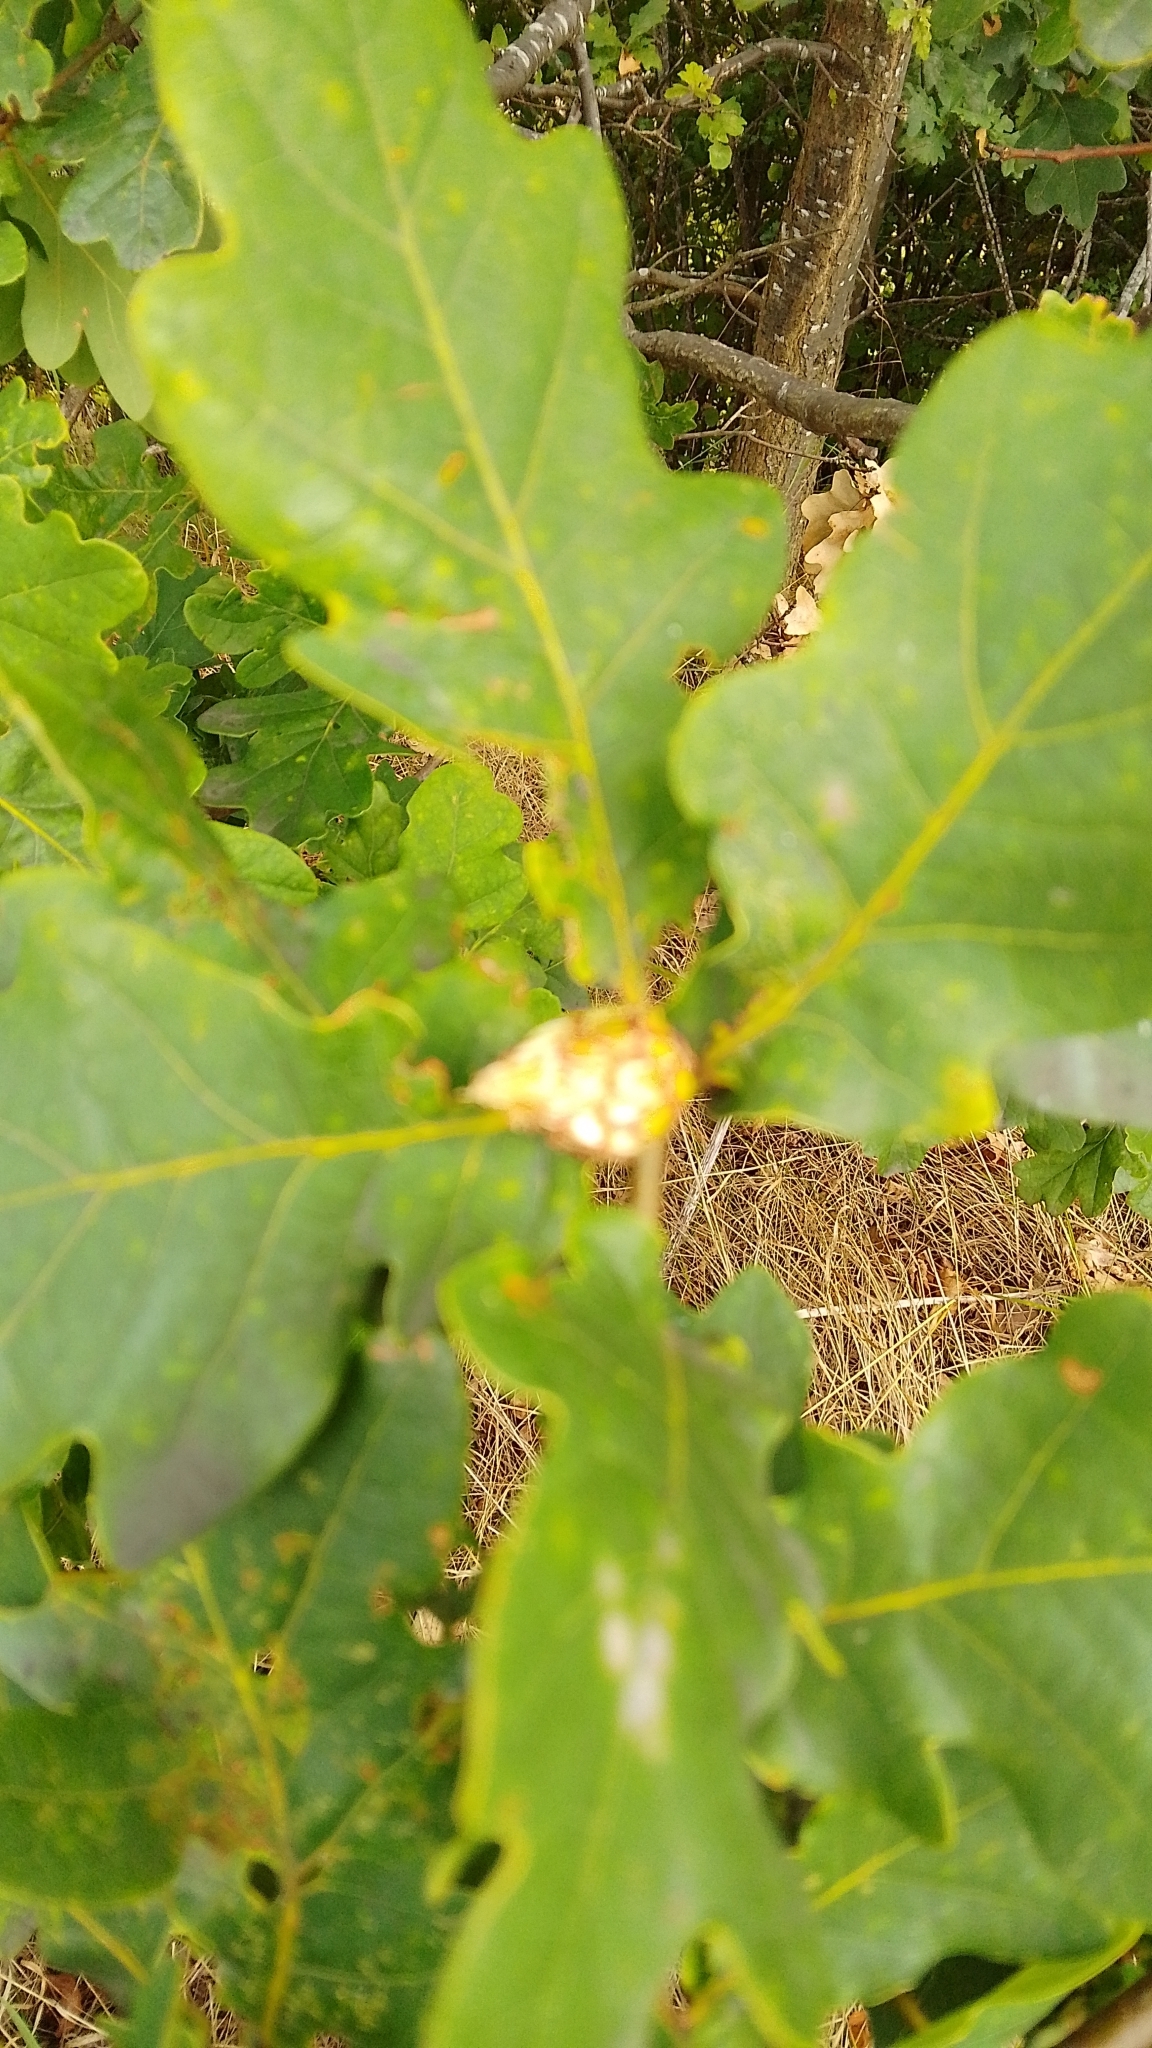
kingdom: Plantae
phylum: Tracheophyta
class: Magnoliopsida
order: Fagales
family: Fagaceae
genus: Quercus
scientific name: Quercus robur
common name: Pedunculate oak
